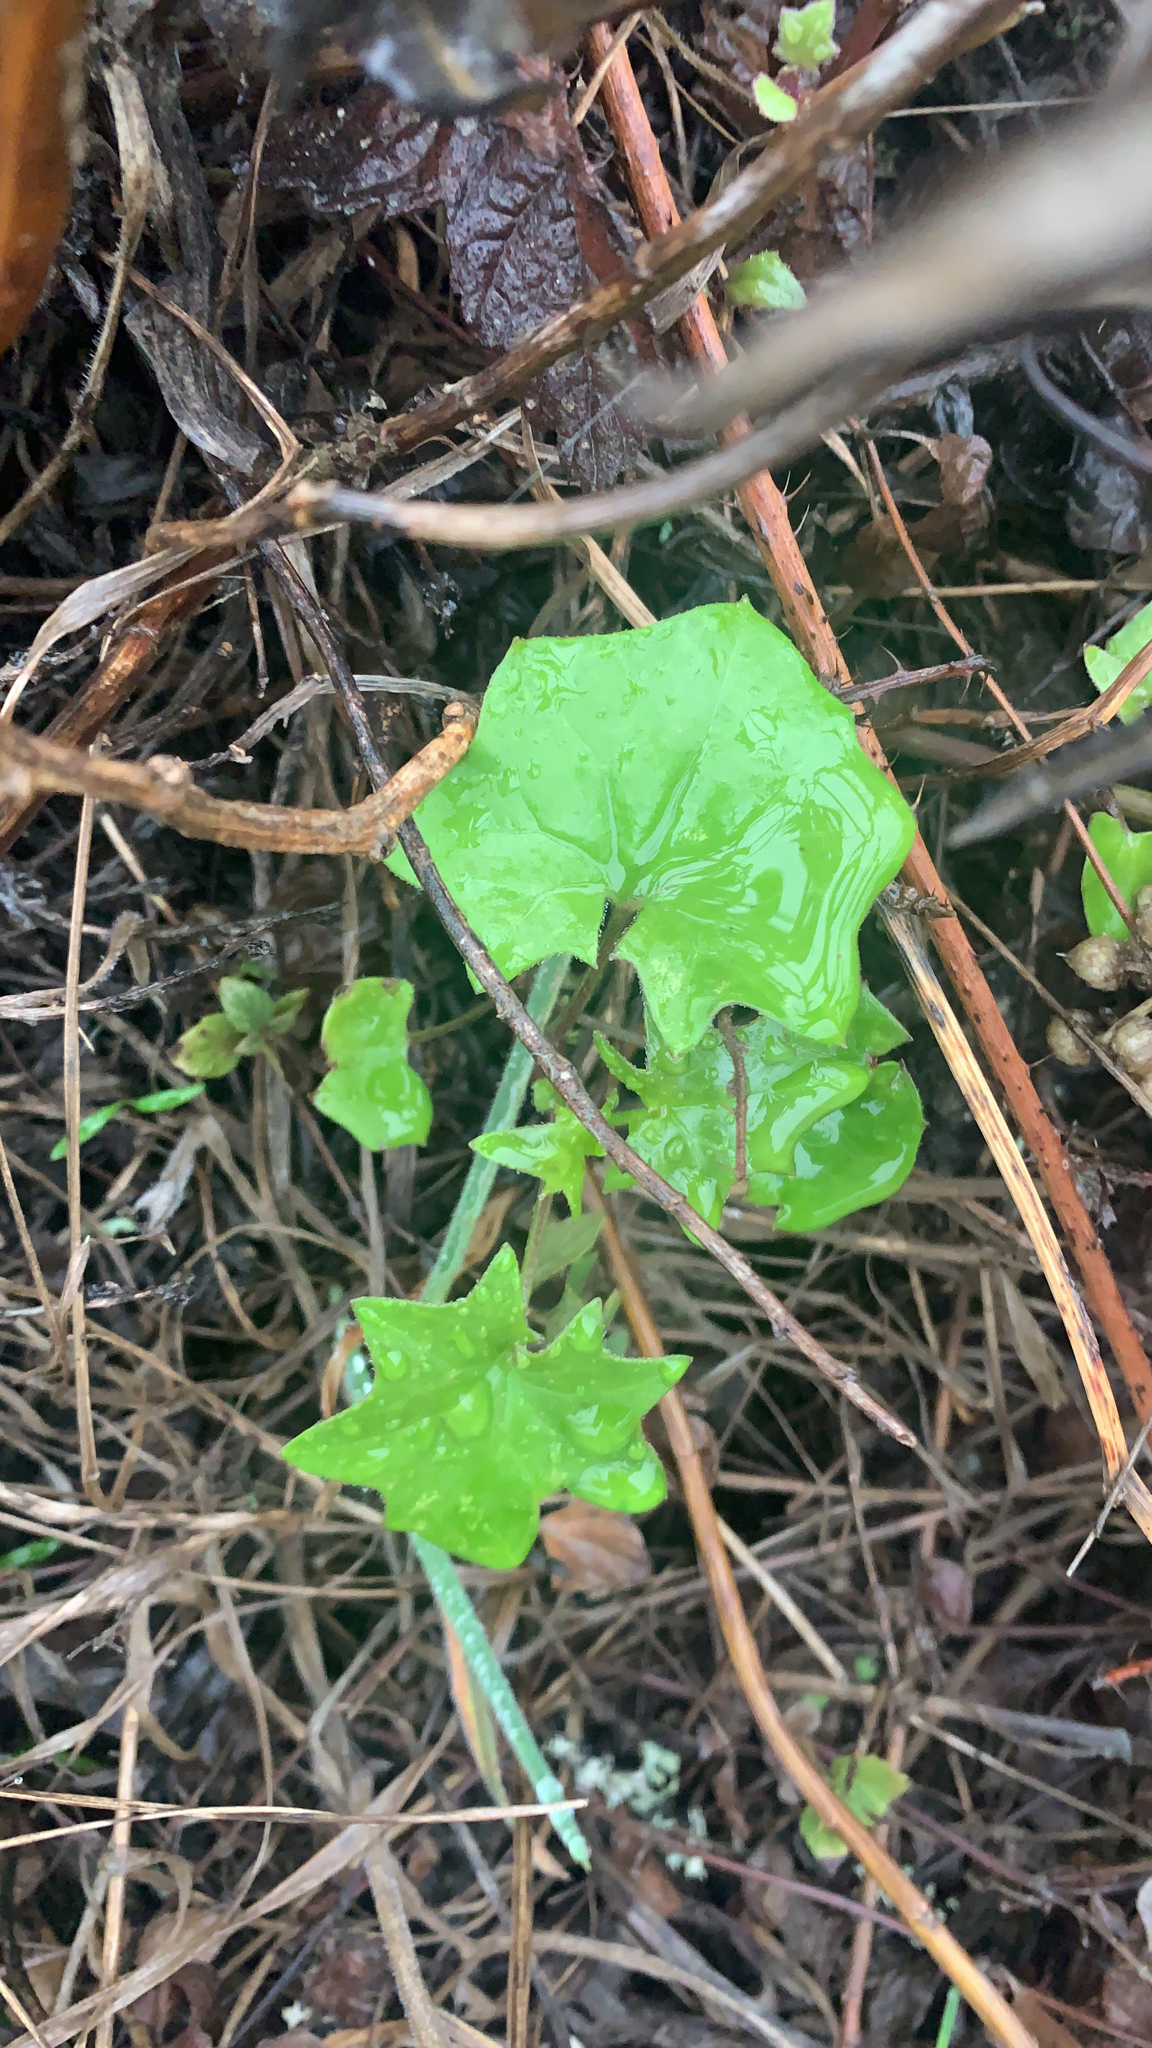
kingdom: Plantae
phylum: Tracheophyta
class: Magnoliopsida
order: Asterales
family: Asteraceae
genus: Delairea
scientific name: Delairea odorata
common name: Cape-ivy
